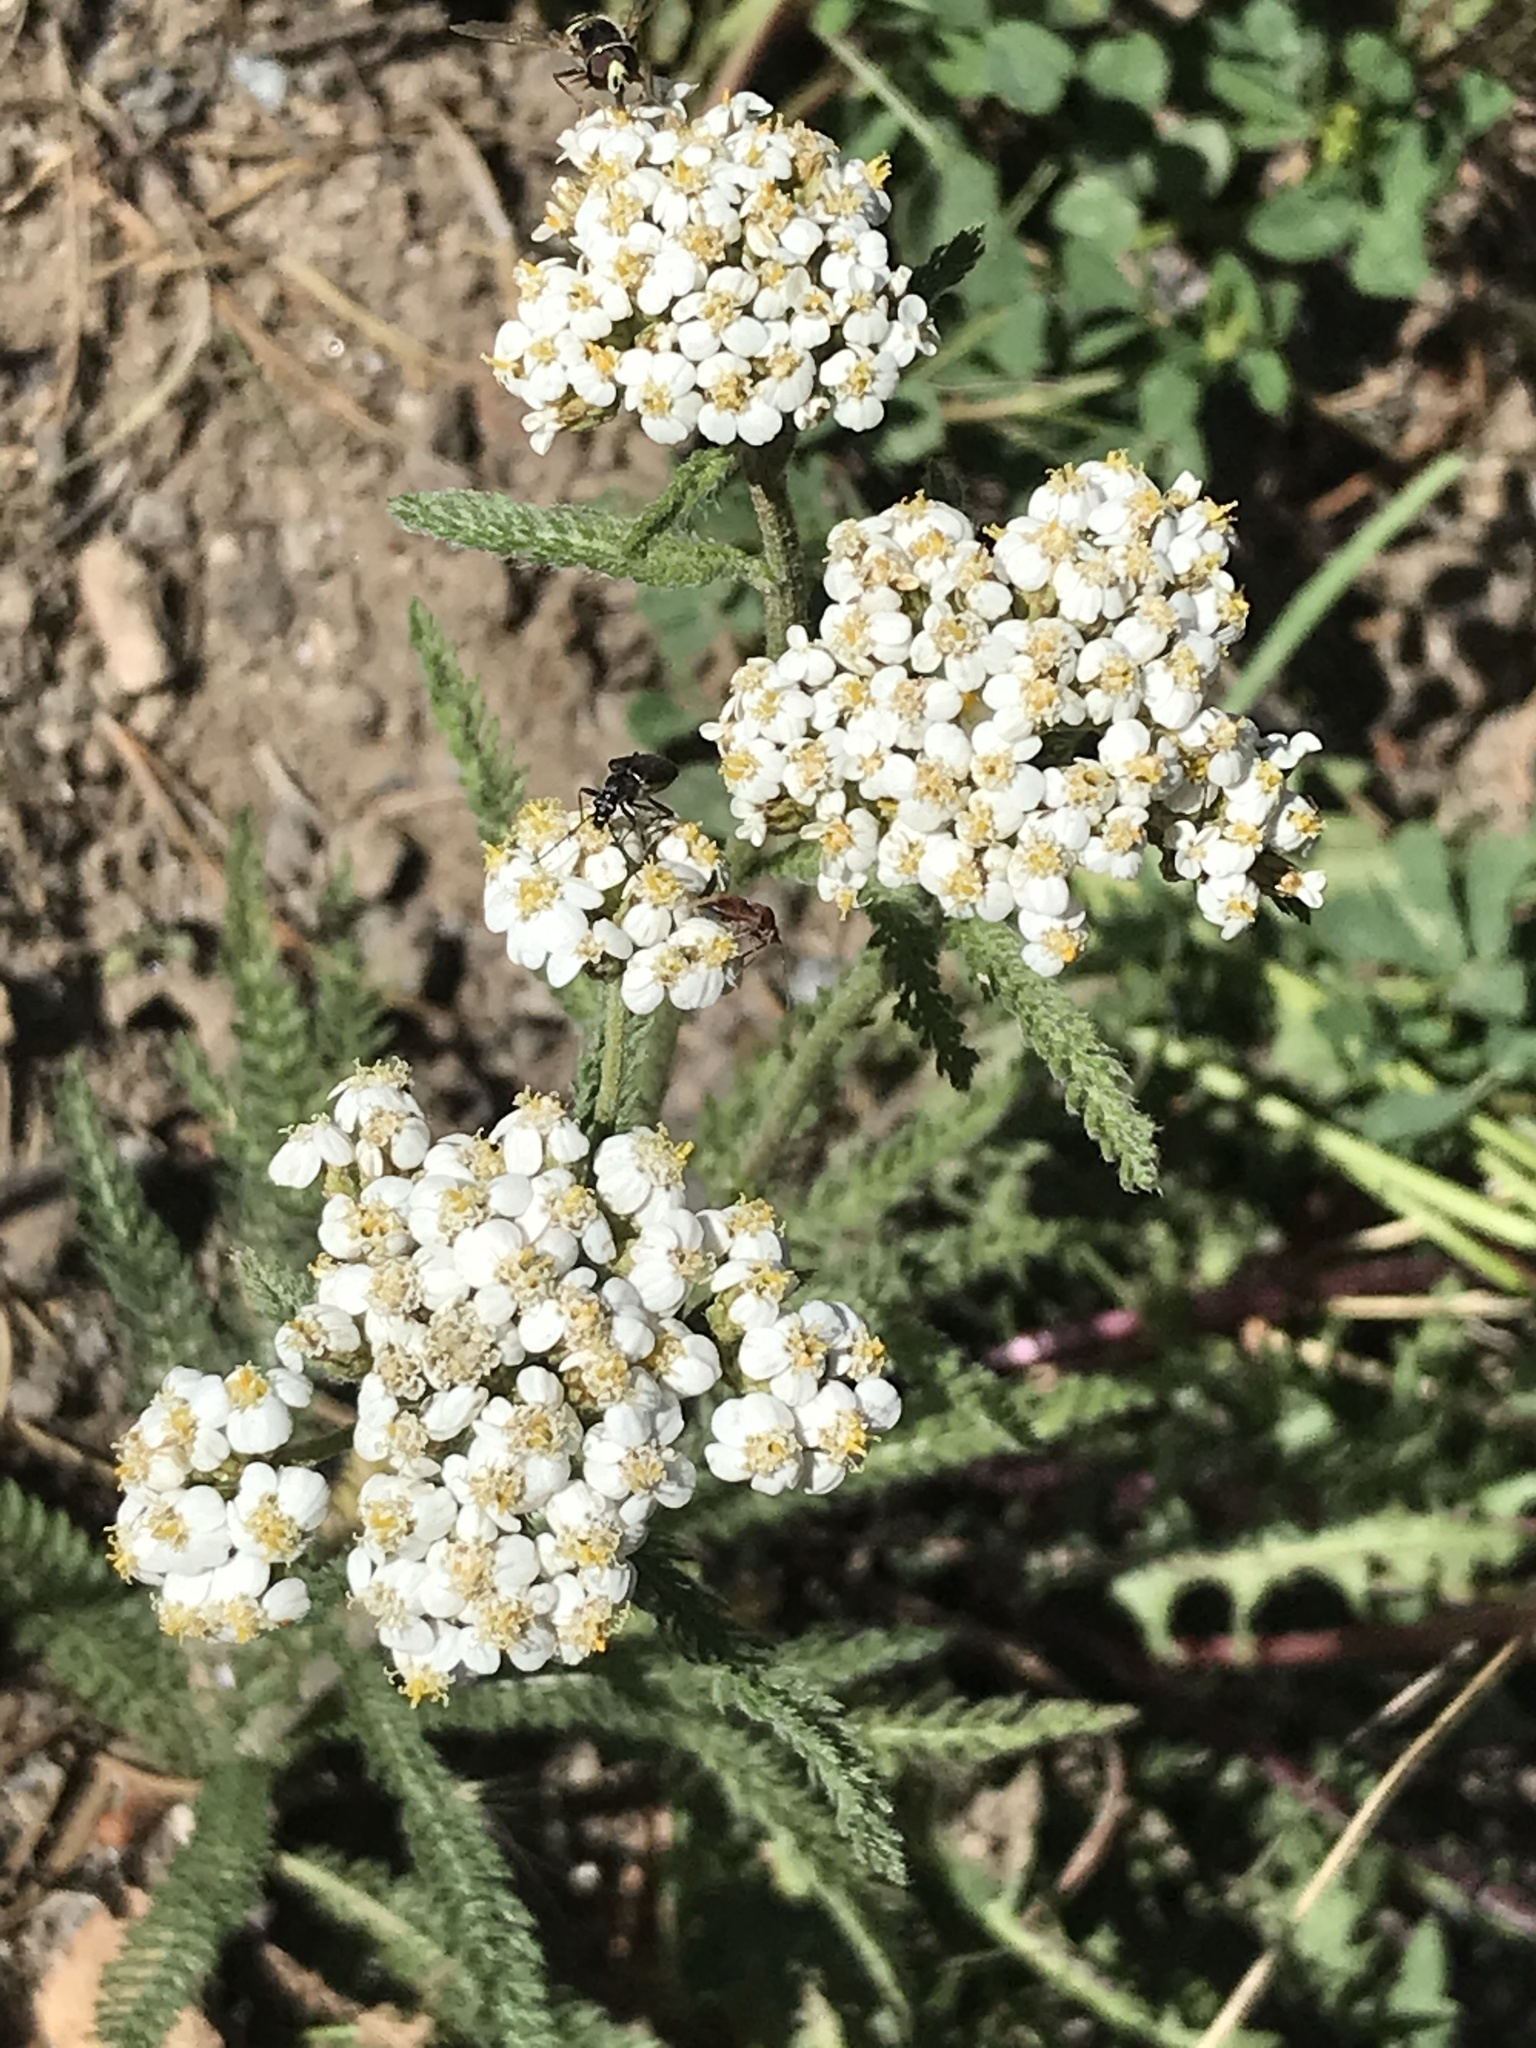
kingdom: Plantae
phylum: Tracheophyta
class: Magnoliopsida
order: Asterales
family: Asteraceae
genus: Achillea
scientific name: Achillea millefolium
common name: Yarrow
